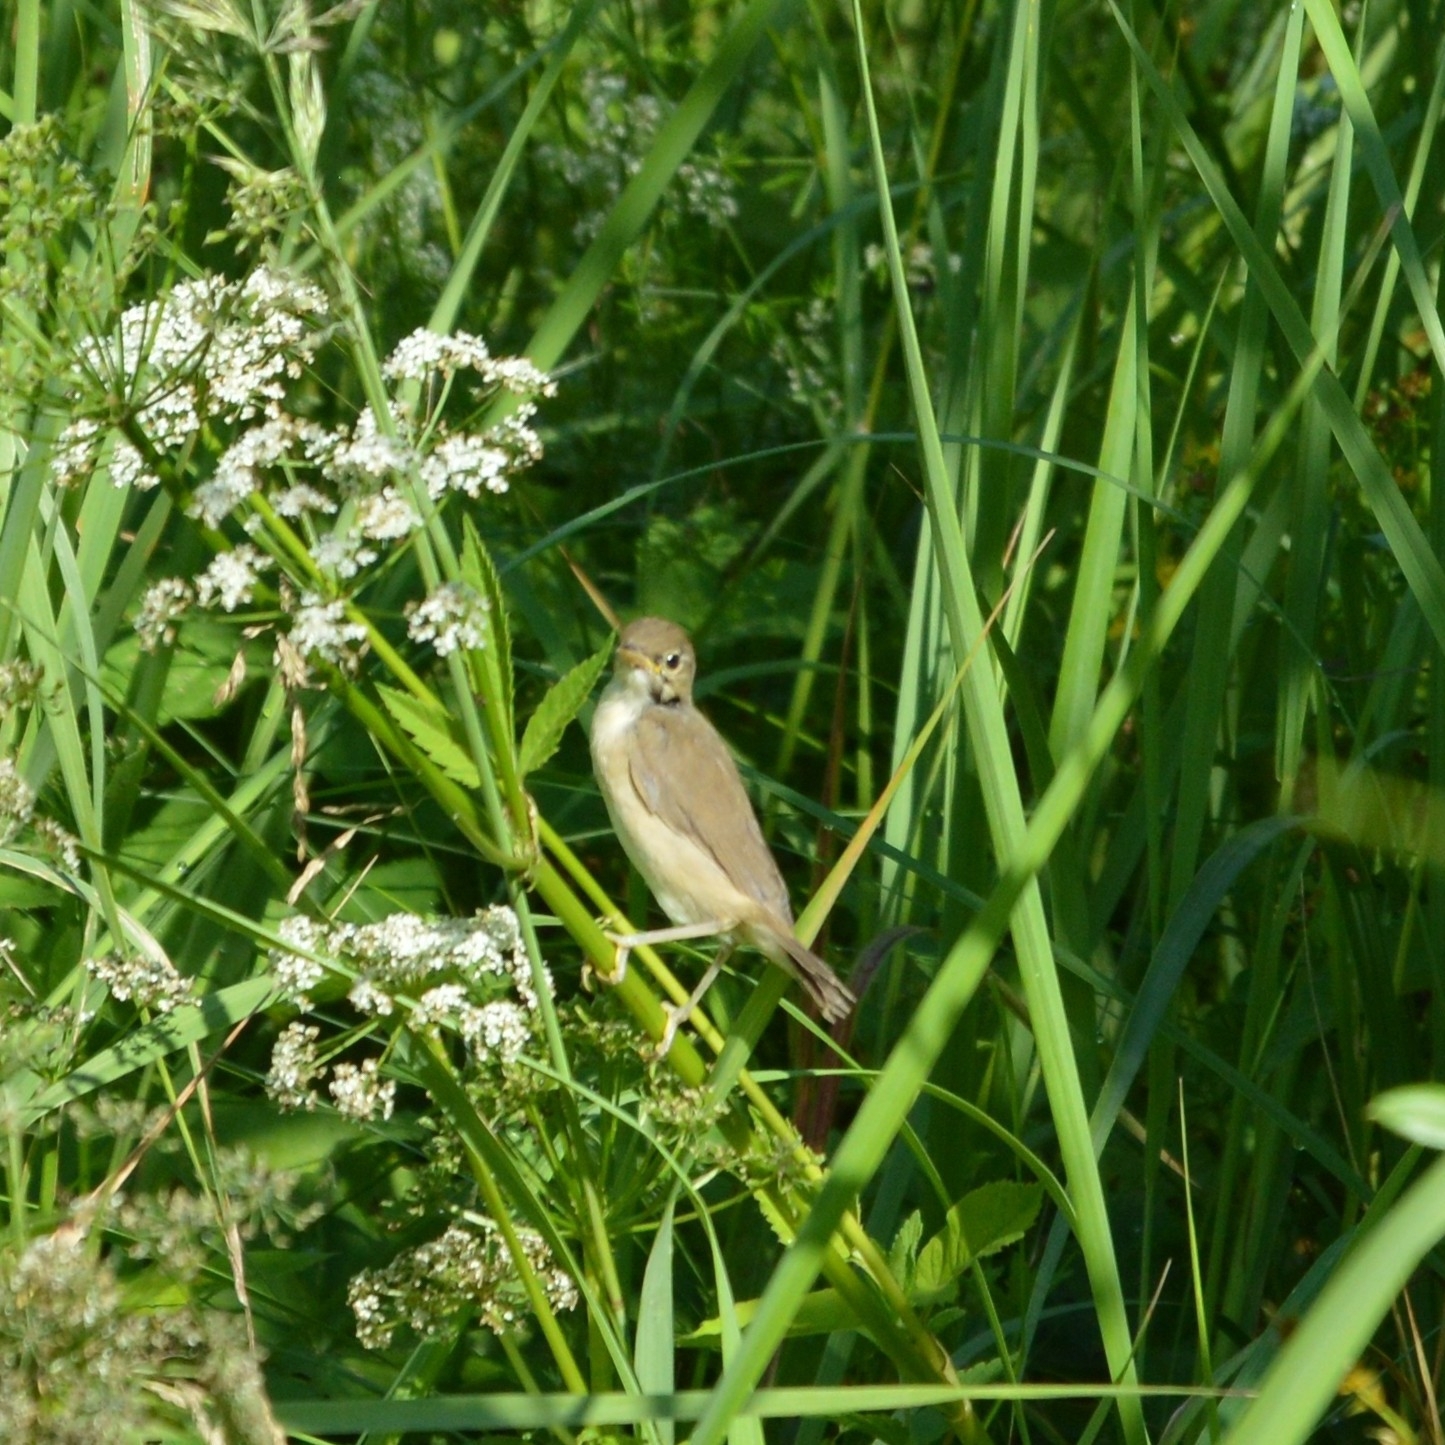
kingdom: Animalia
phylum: Chordata
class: Aves
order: Passeriformes
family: Acrocephalidae
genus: Acrocephalus
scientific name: Acrocephalus dumetorum
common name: Blyth's reed warbler
